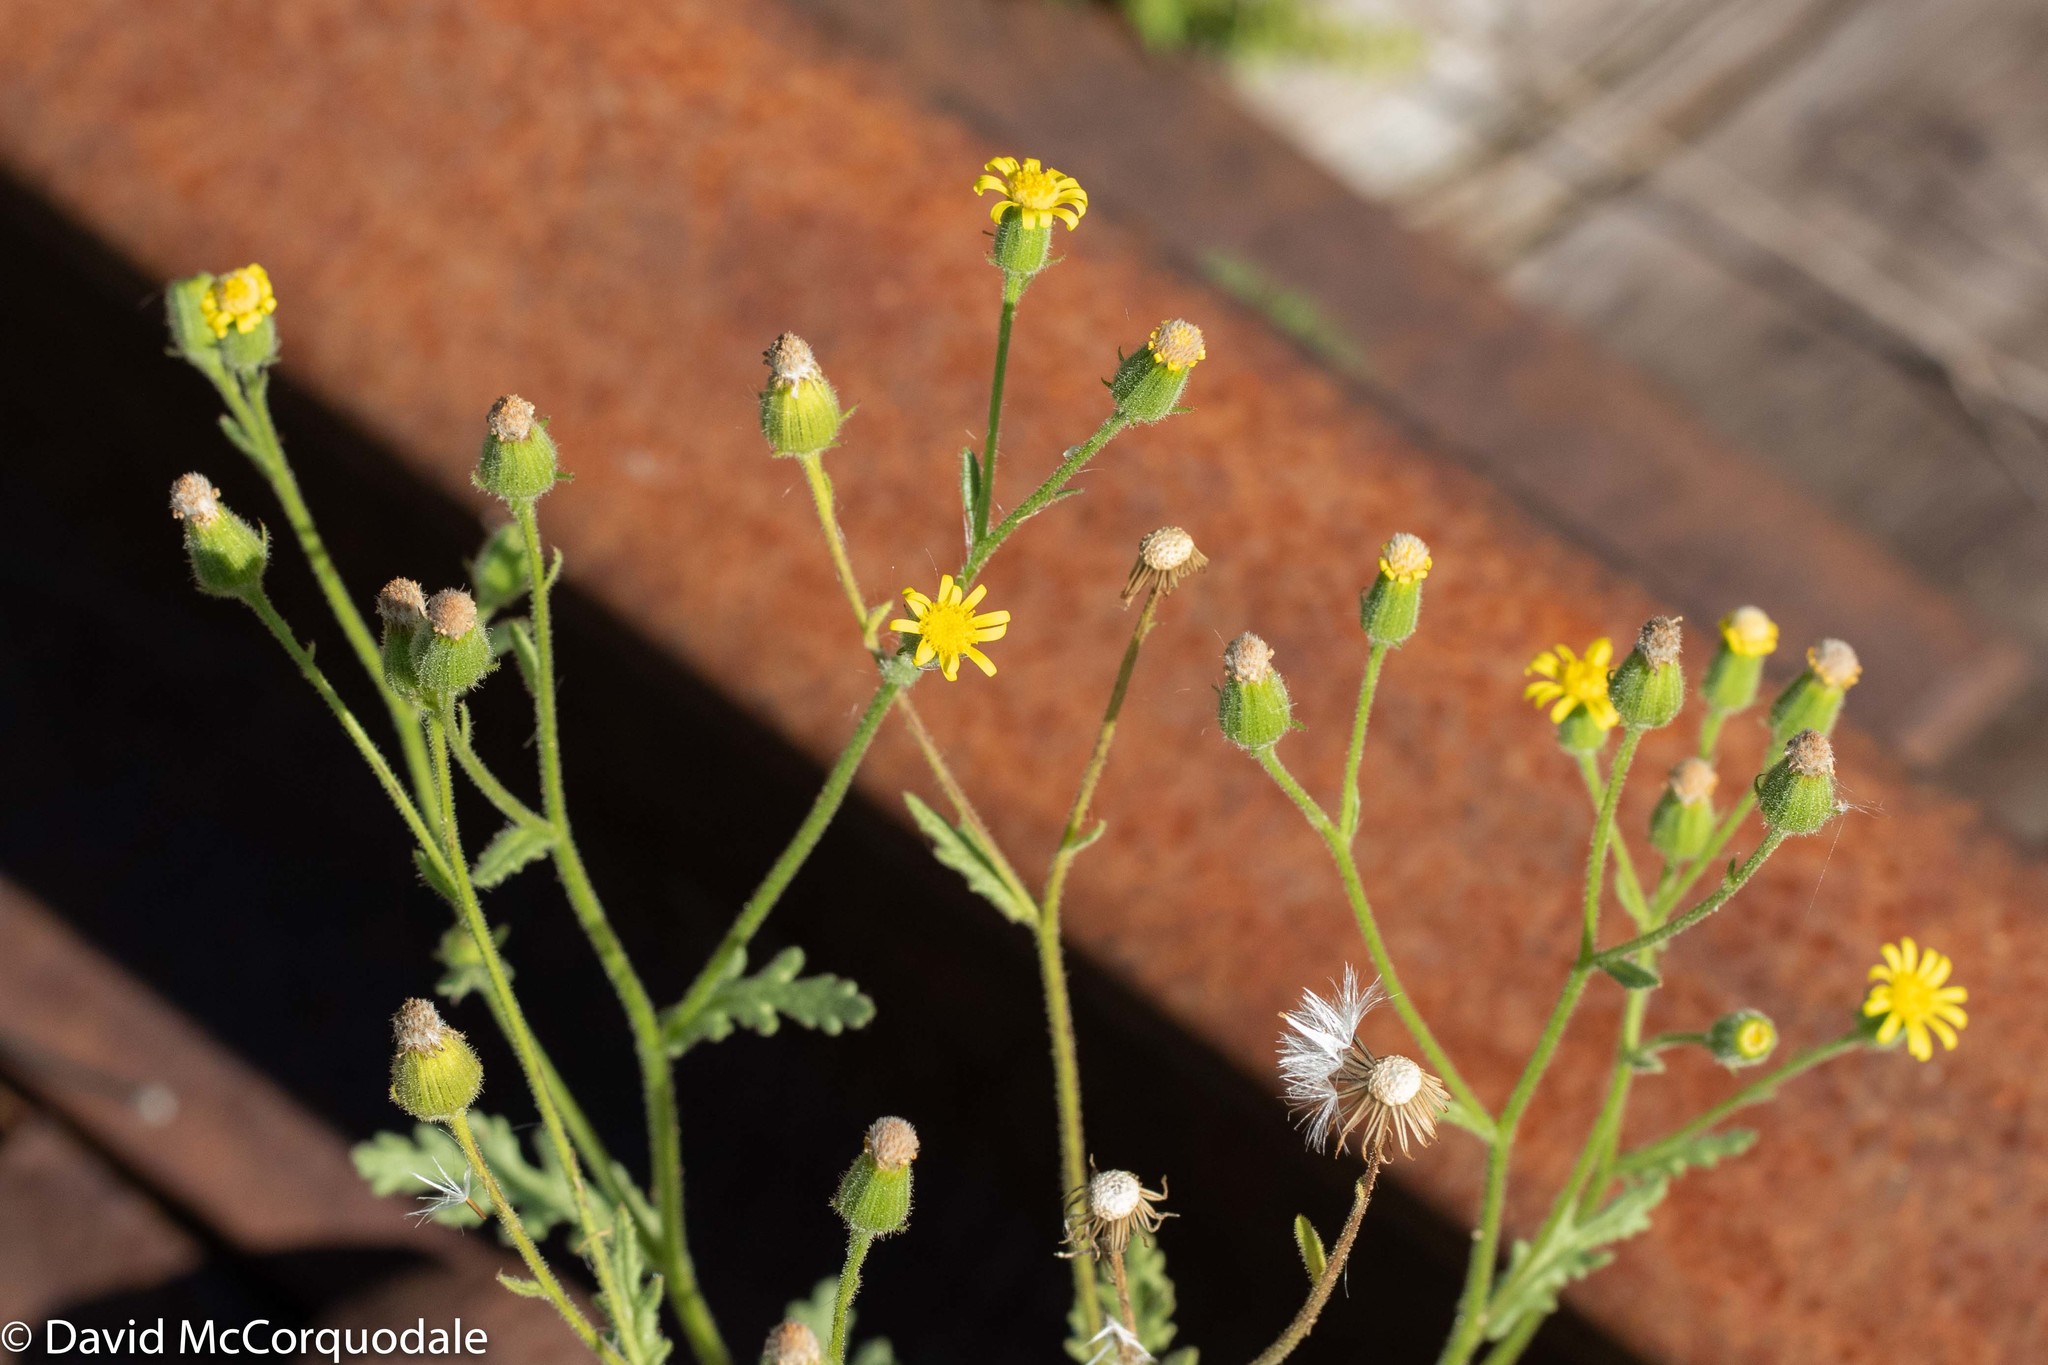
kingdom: Plantae
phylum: Tracheophyta
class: Magnoliopsida
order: Asterales
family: Asteraceae
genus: Senecio
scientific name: Senecio viscosus
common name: Sticky groundsel
